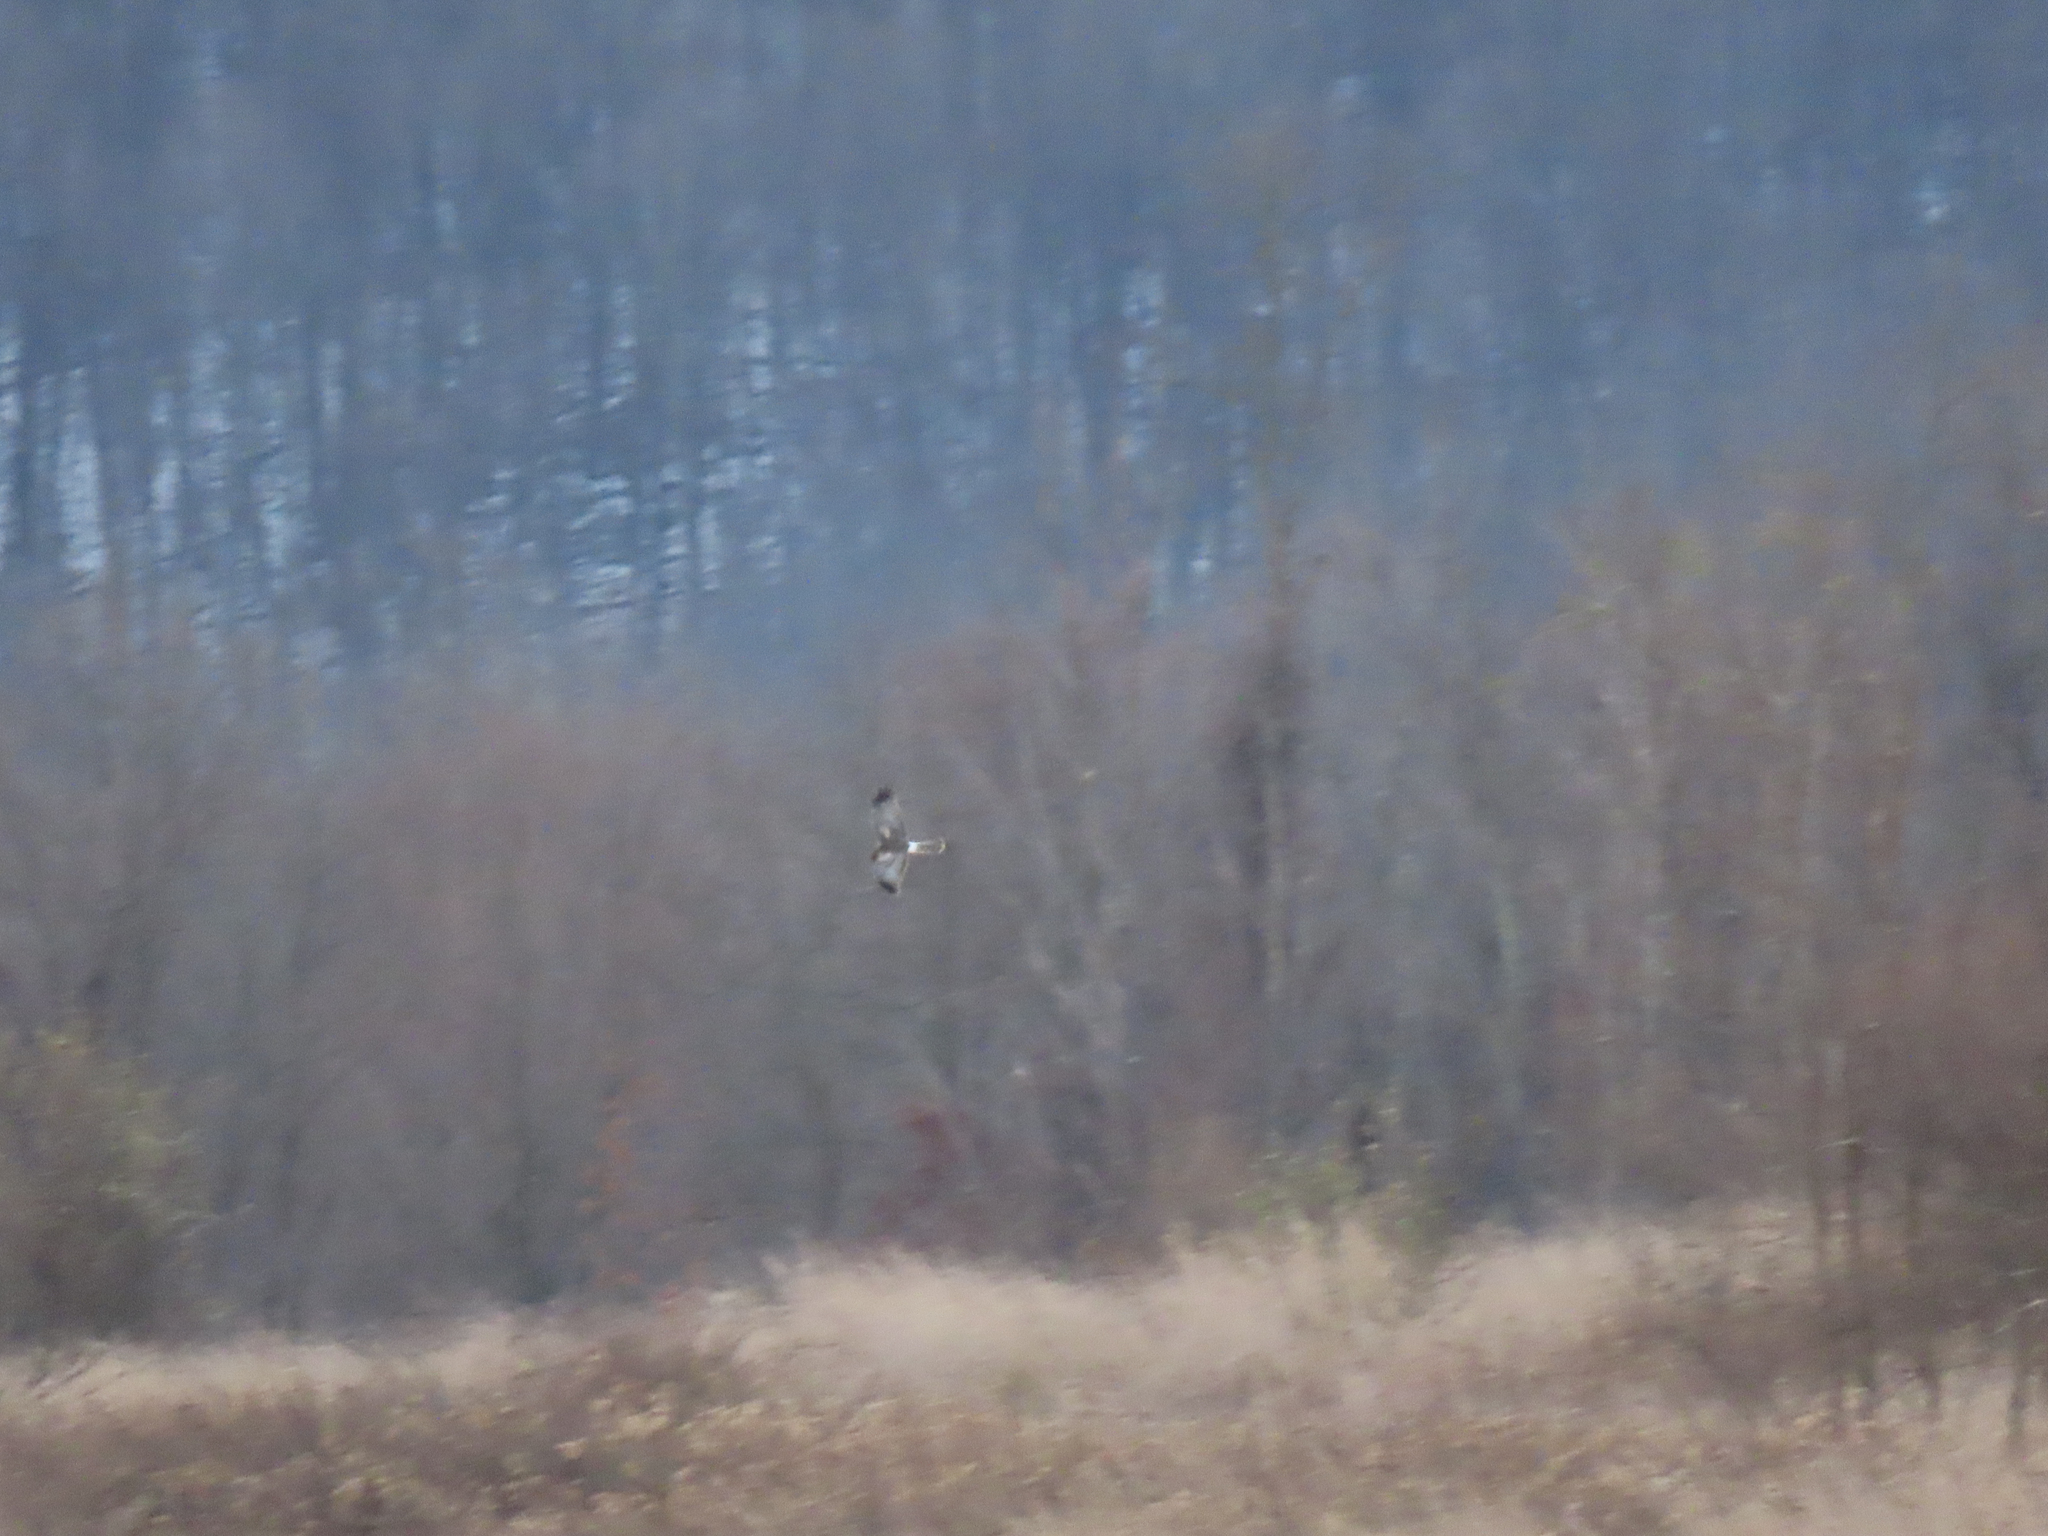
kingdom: Animalia
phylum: Chordata
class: Aves
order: Accipitriformes
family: Accipitridae
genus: Circus
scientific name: Circus cyaneus
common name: Hen harrier
